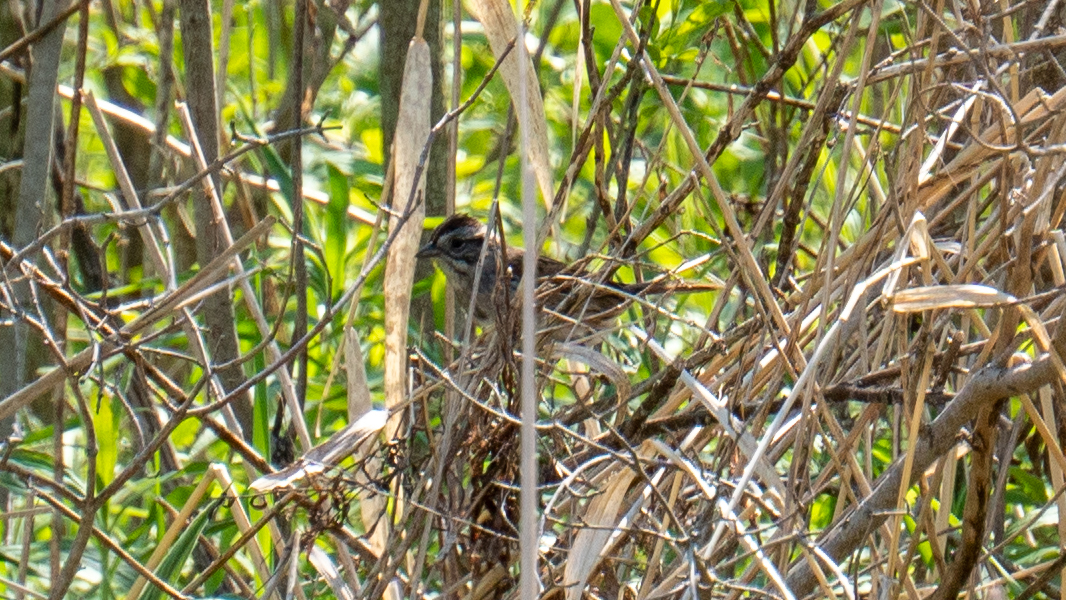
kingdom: Animalia
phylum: Chordata
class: Aves
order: Passeriformes
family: Passerellidae
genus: Melospiza
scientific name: Melospiza melodia
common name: Song sparrow
